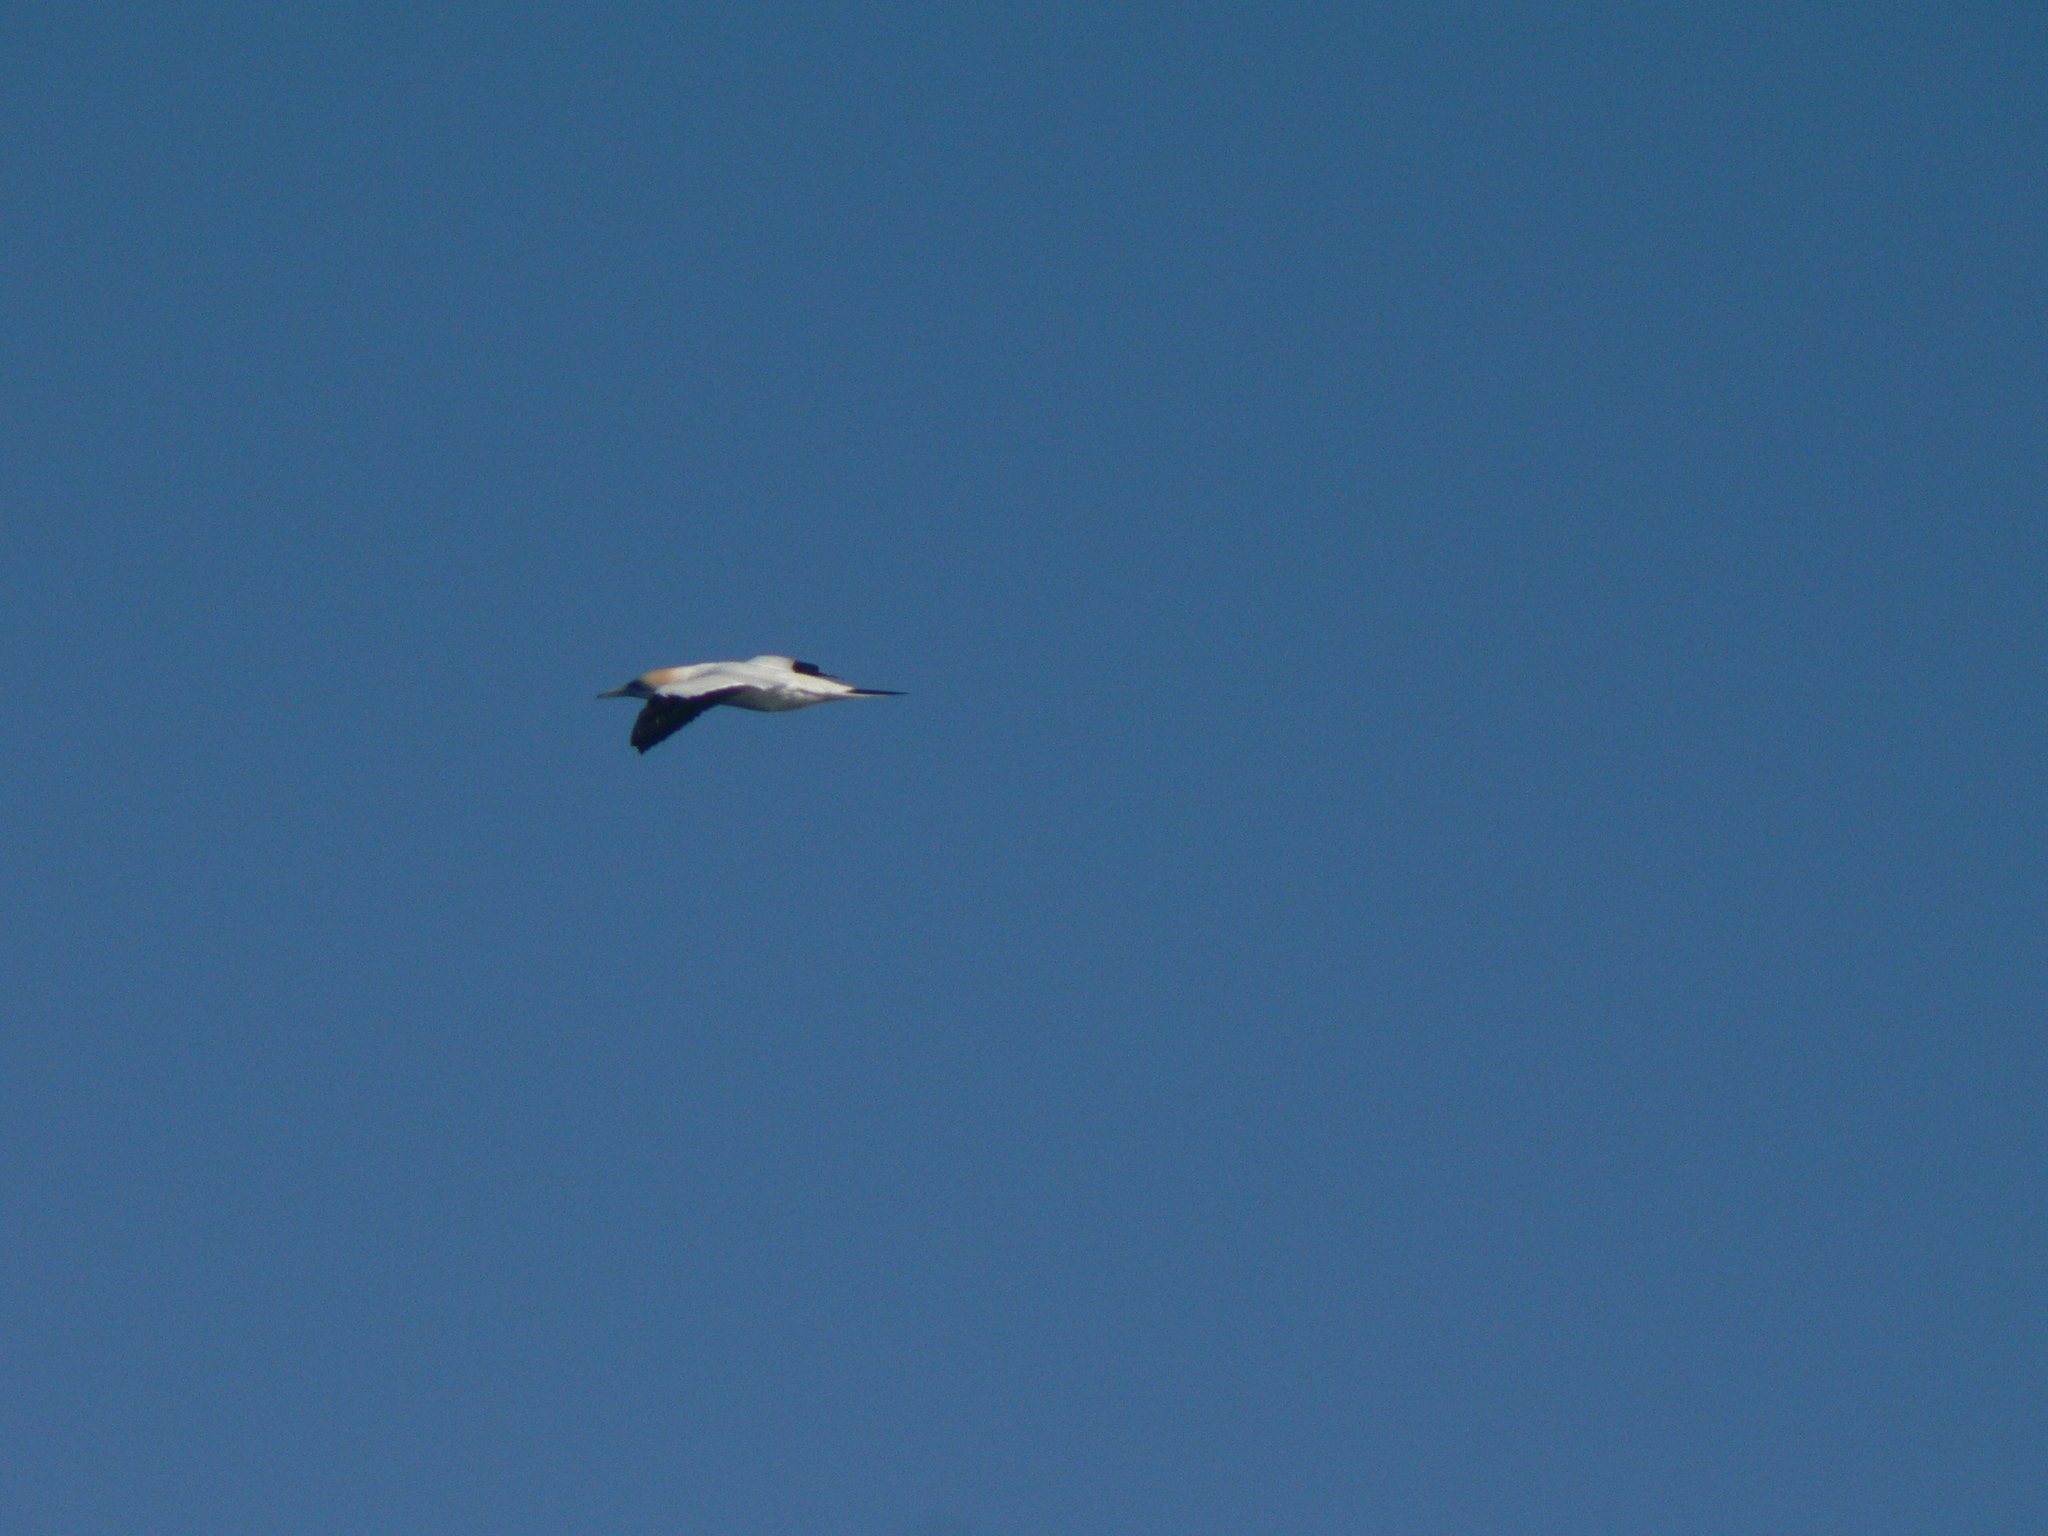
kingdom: Animalia
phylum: Chordata
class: Aves
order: Suliformes
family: Sulidae
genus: Morus
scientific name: Morus serrator
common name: Australasian gannet
